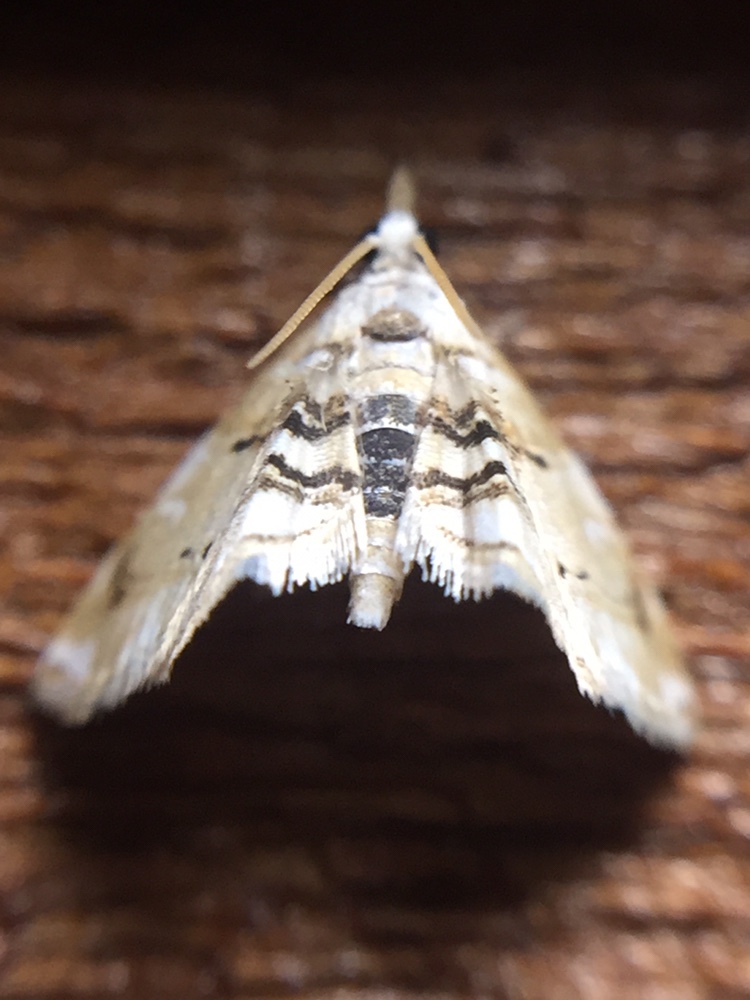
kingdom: Animalia
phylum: Arthropoda
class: Insecta
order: Lepidoptera
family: Crambidae
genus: Trichophysetis
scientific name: Trichophysetis
